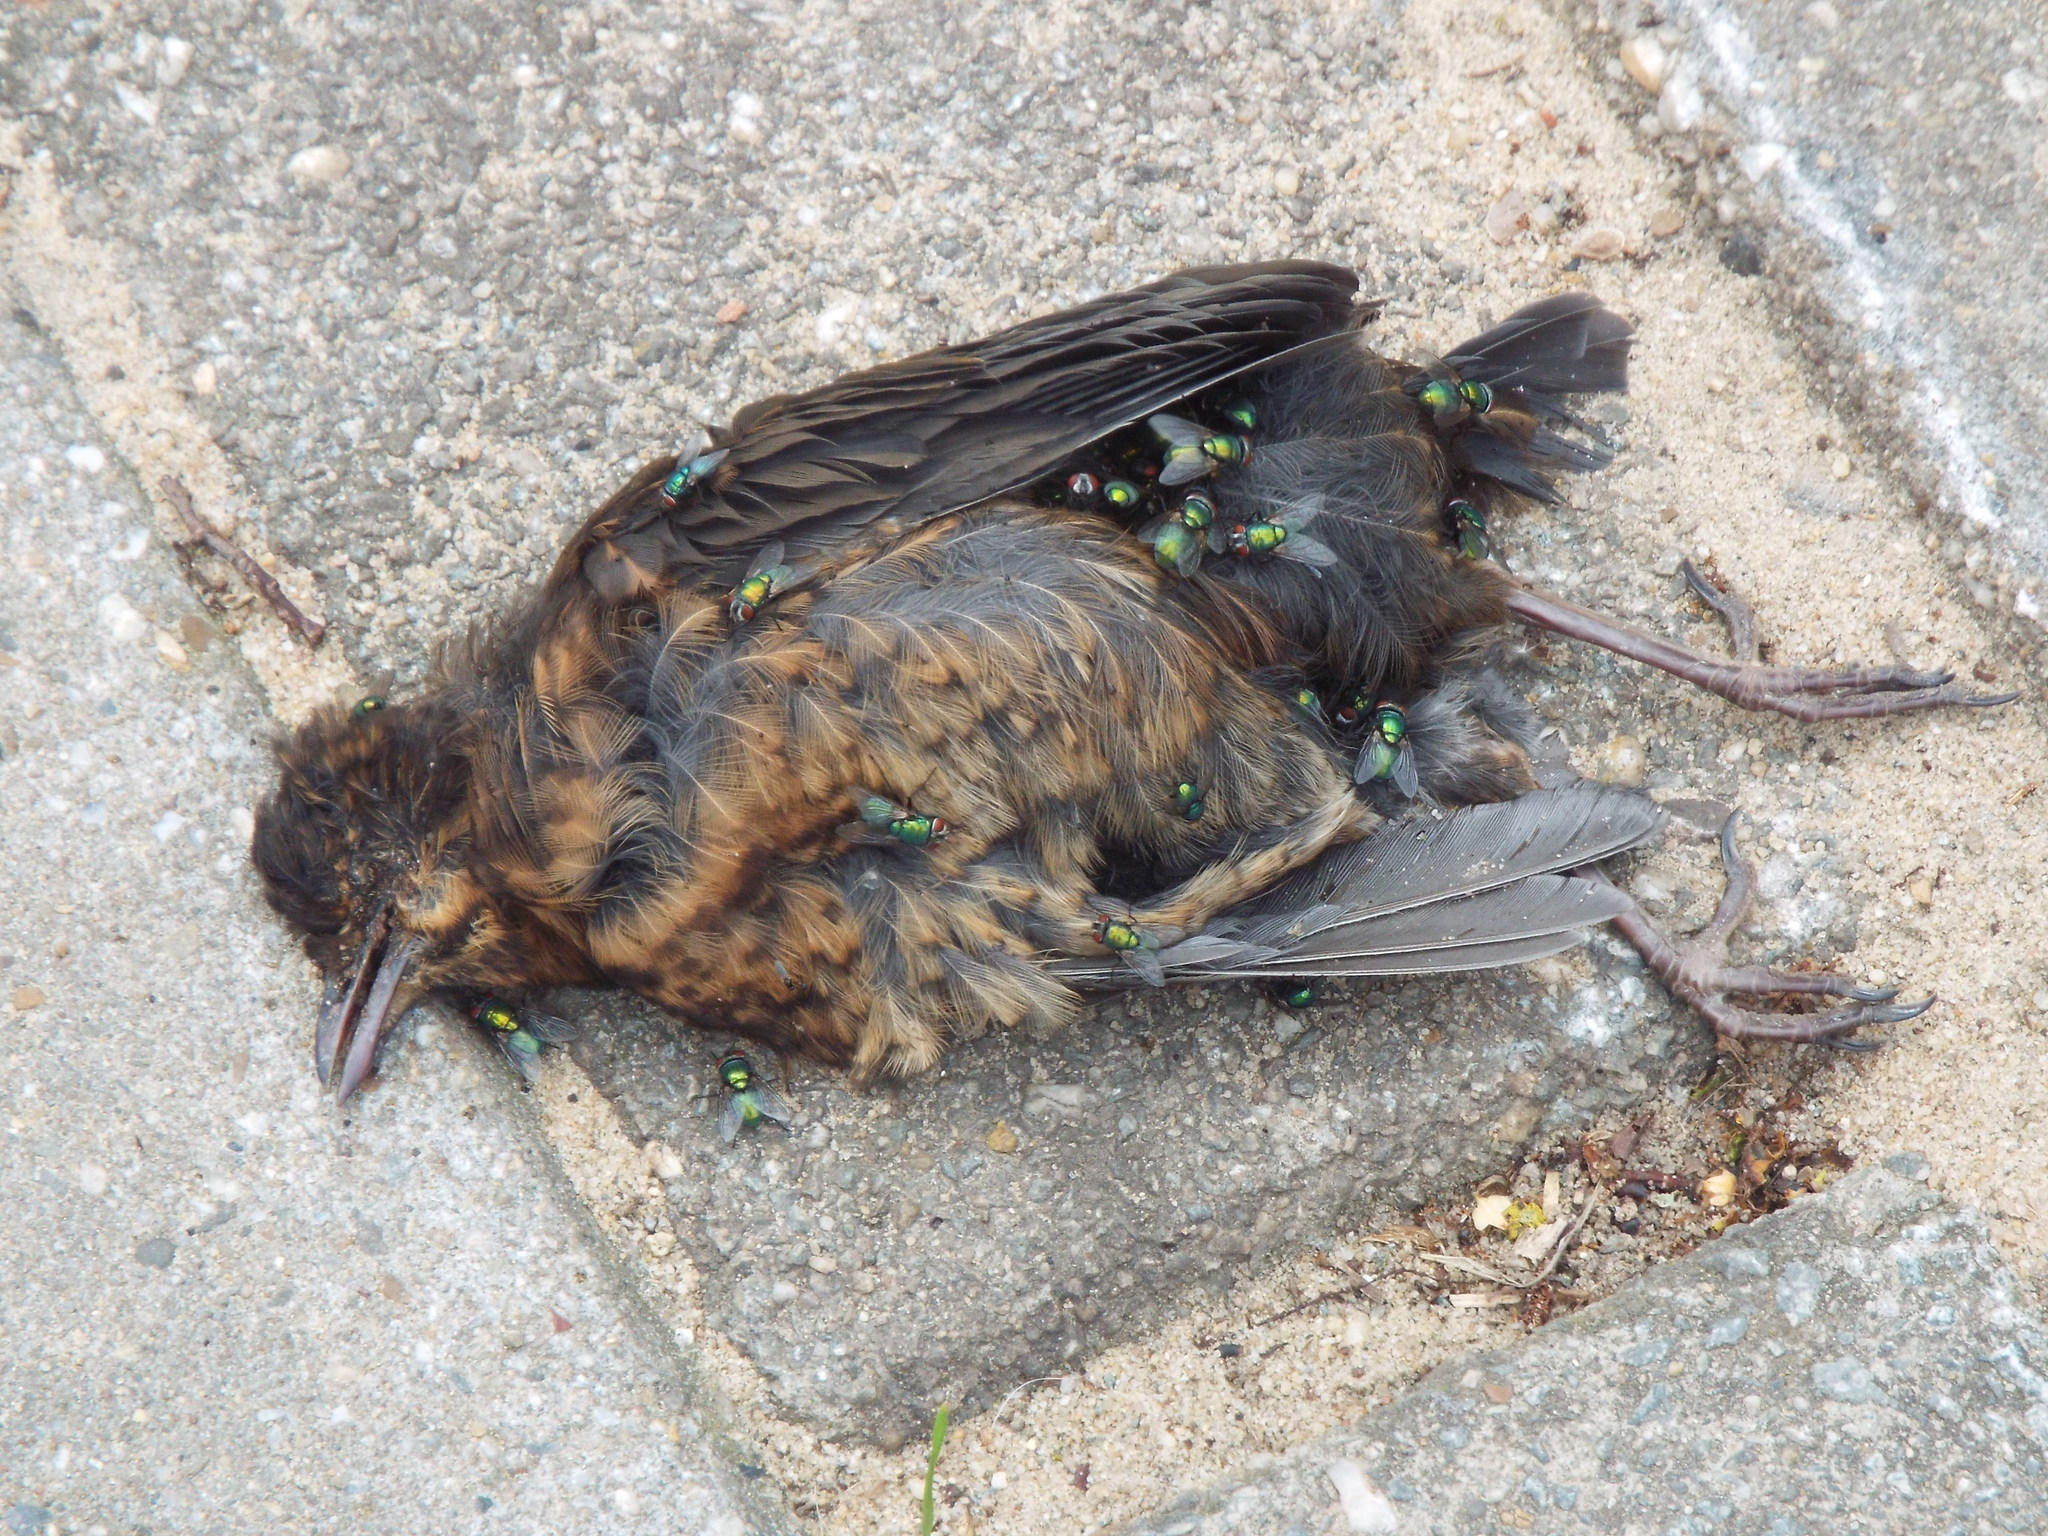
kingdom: Animalia
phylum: Chordata
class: Aves
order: Passeriformes
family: Turdidae
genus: Turdus
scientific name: Turdus merula
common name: Common blackbird
